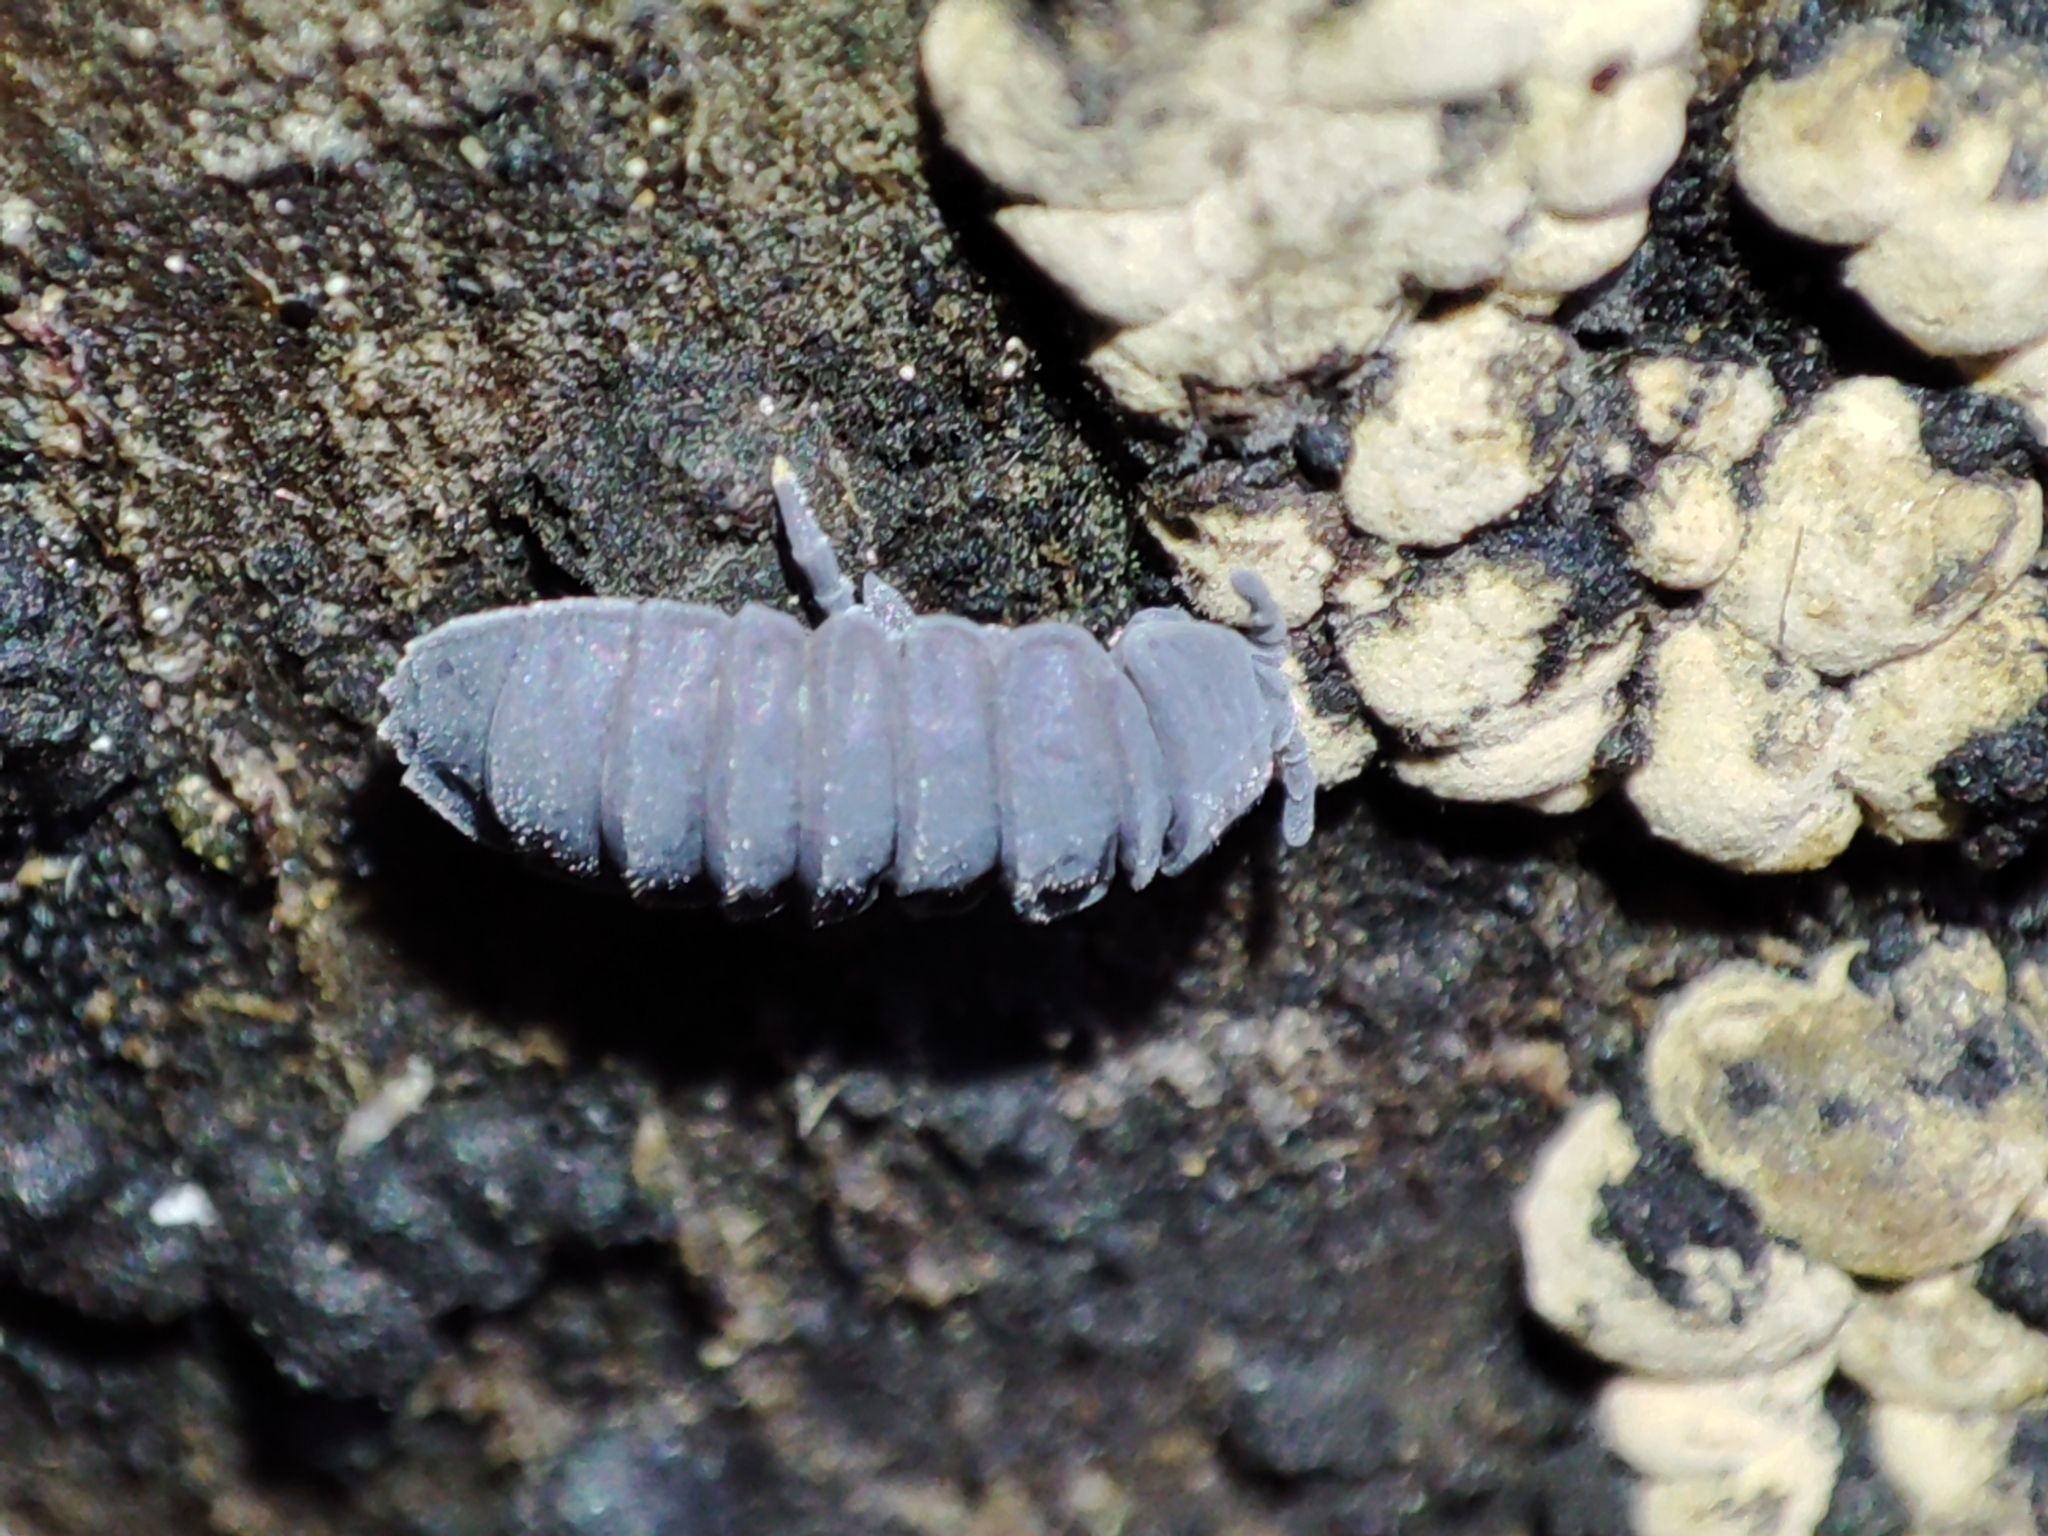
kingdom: Animalia
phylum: Arthropoda
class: Collembola
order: Poduromorpha
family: Onychiuridae
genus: Tetrodontophora
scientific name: Tetrodontophora bielanensis
